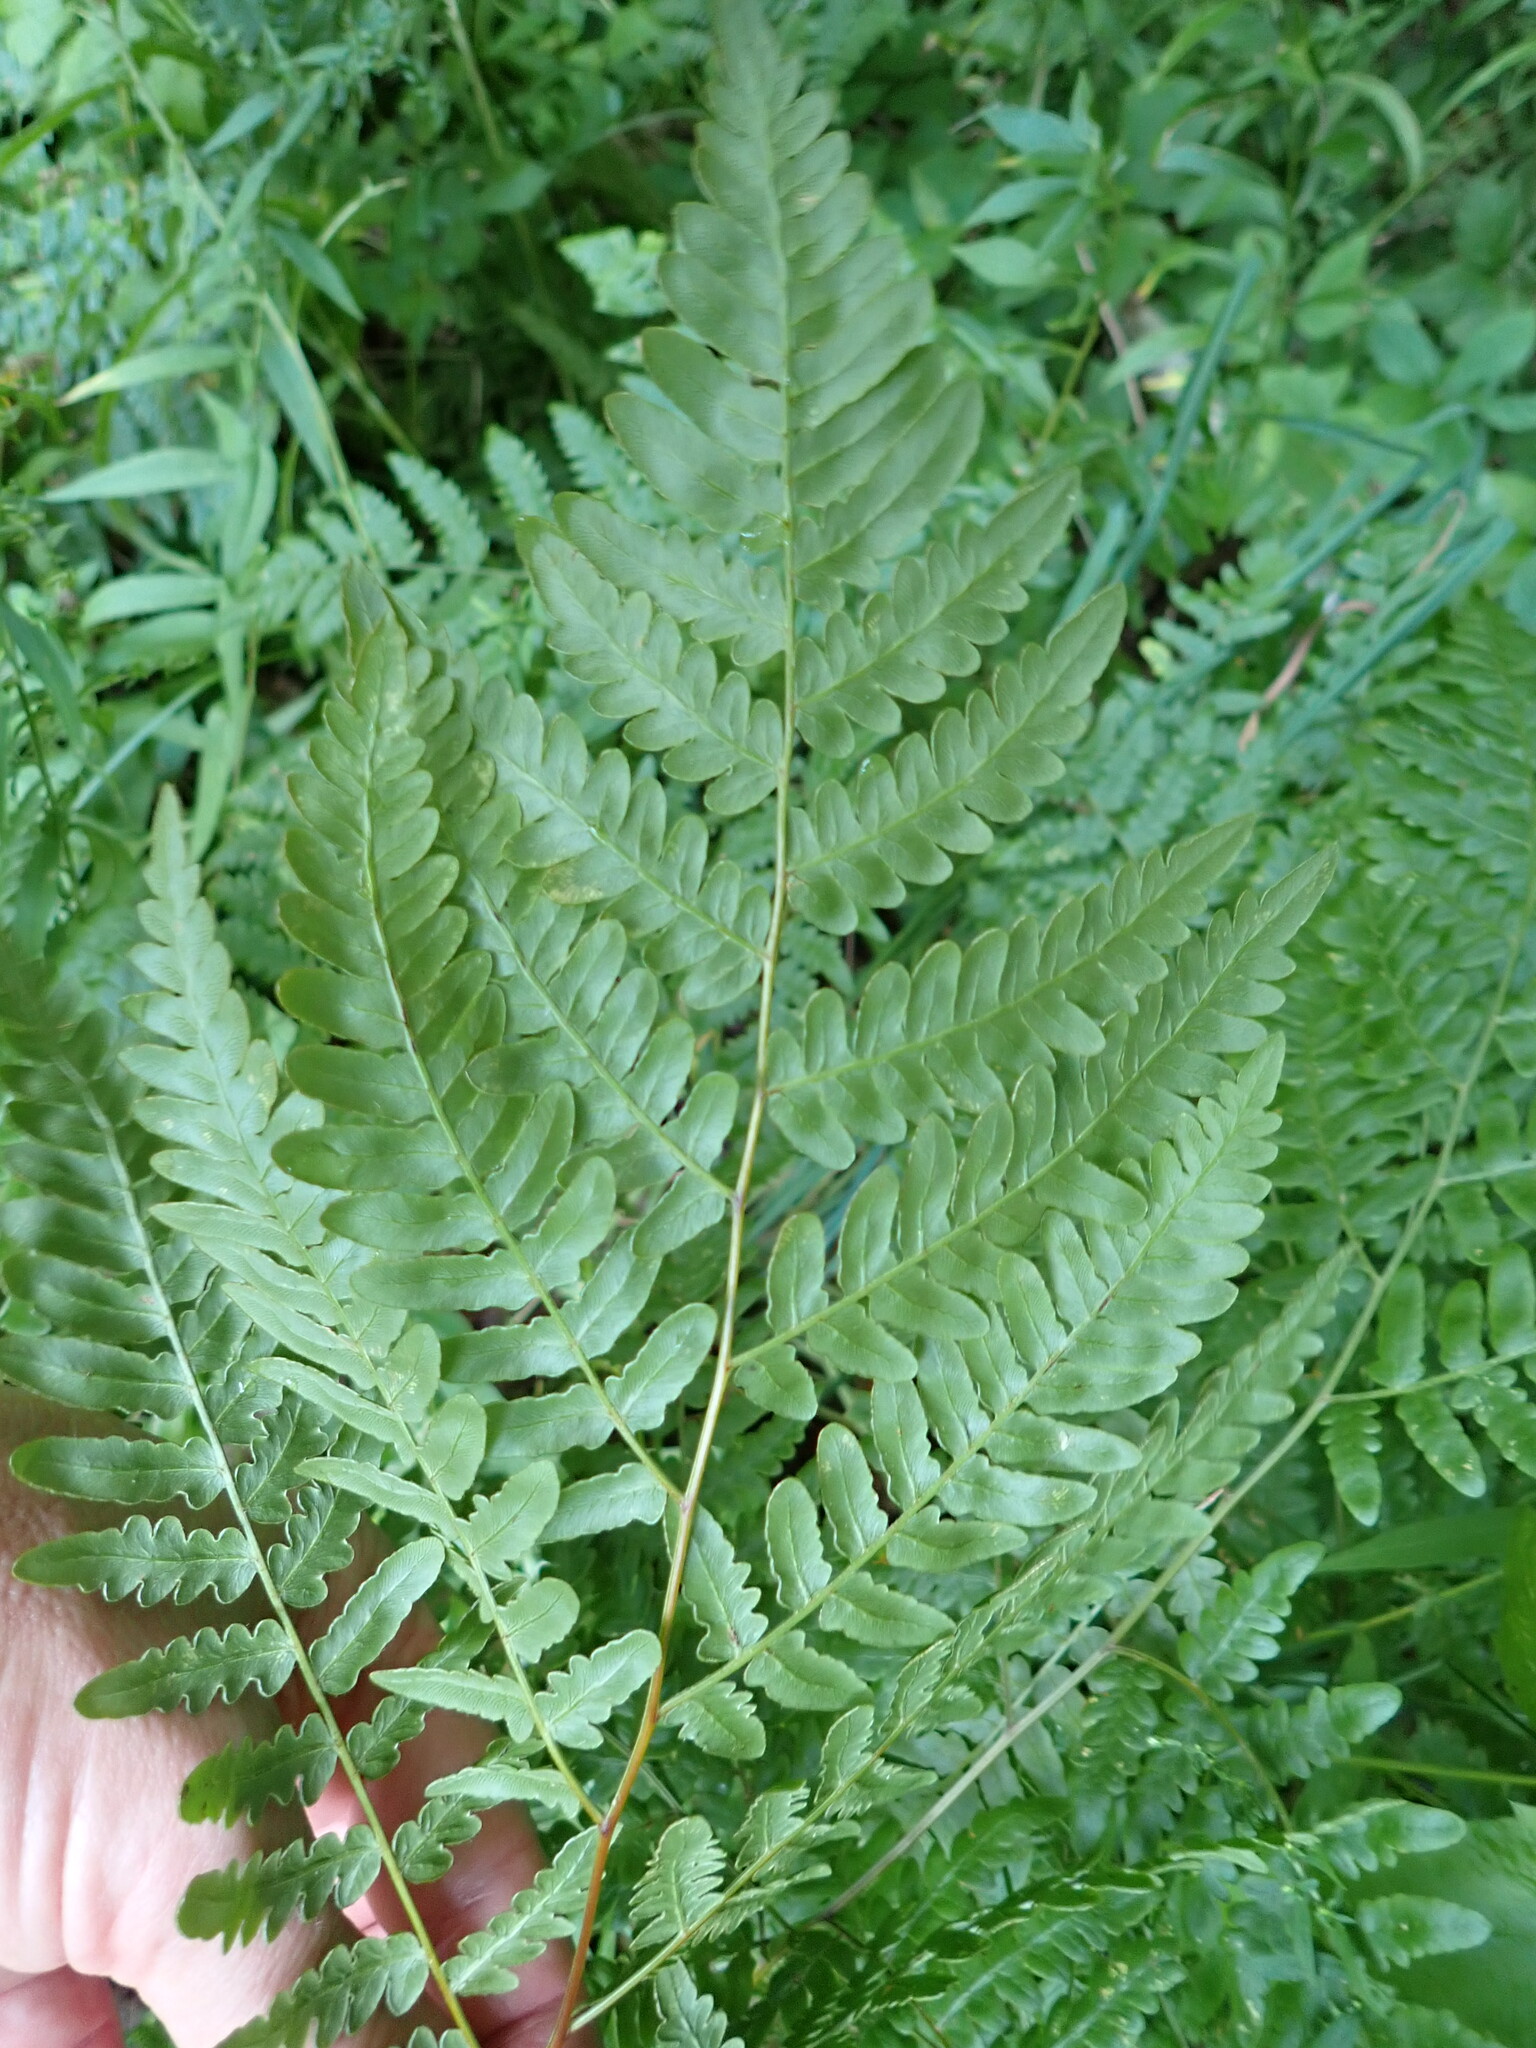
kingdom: Plantae
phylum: Tracheophyta
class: Polypodiopsida
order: Polypodiales
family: Dennstaedtiaceae
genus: Pteridium
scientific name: Pteridium aquilinum
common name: Bracken
